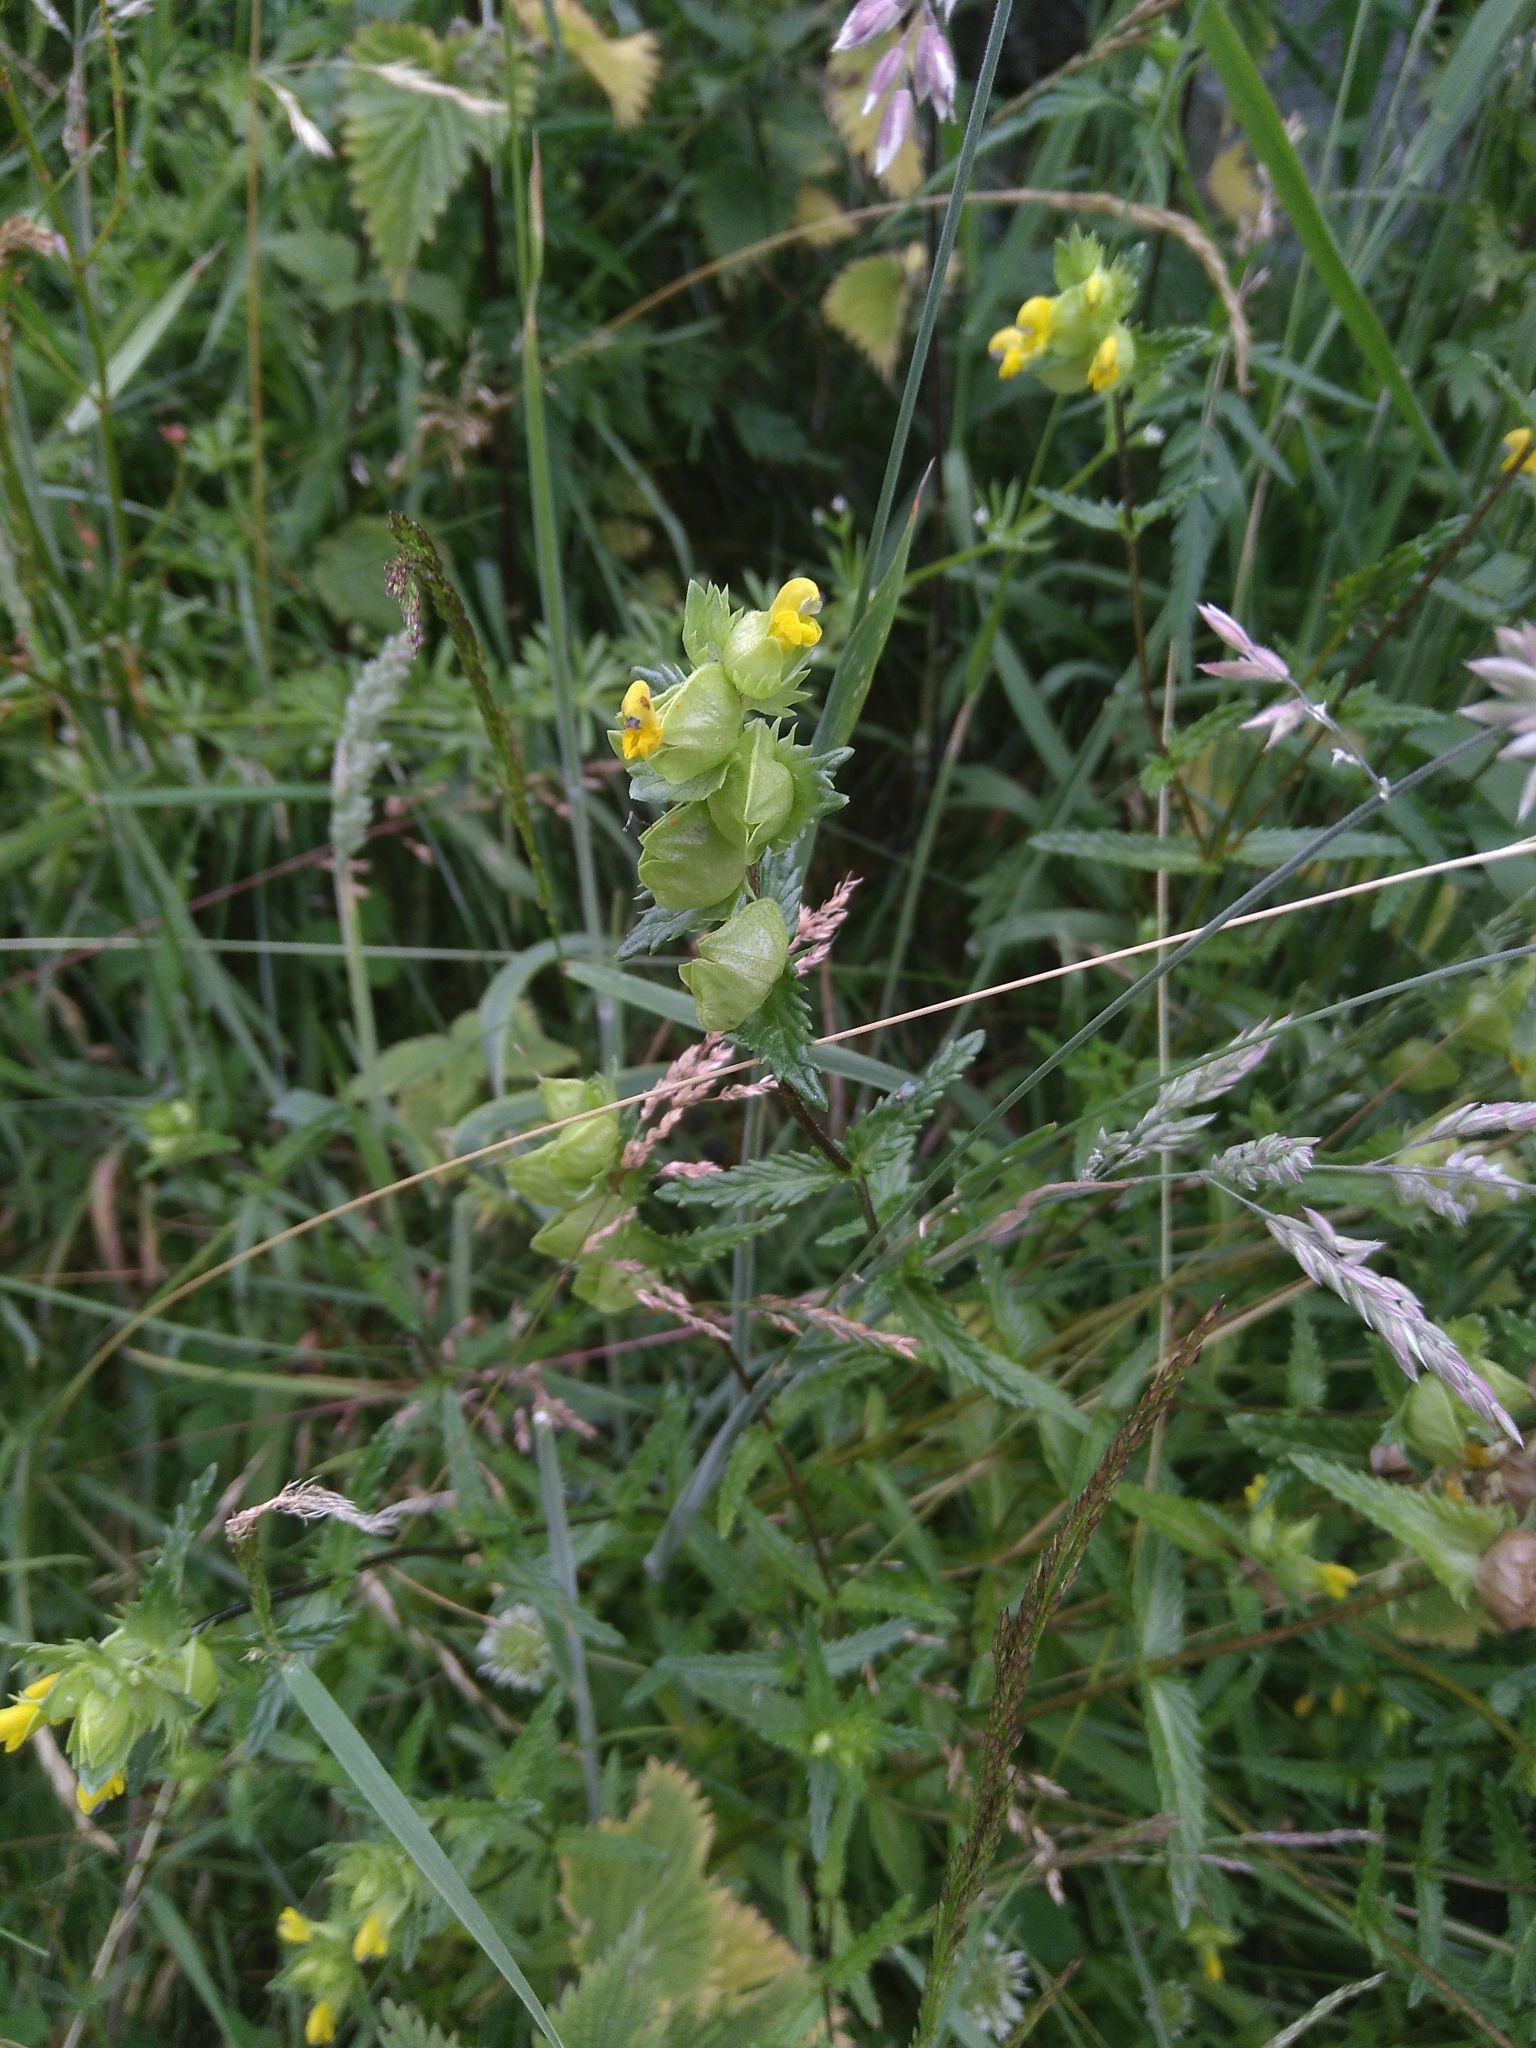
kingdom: Plantae
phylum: Tracheophyta
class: Magnoliopsida
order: Lamiales
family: Orobanchaceae
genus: Rhinanthus
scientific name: Rhinanthus minor
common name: Yellow-rattle
